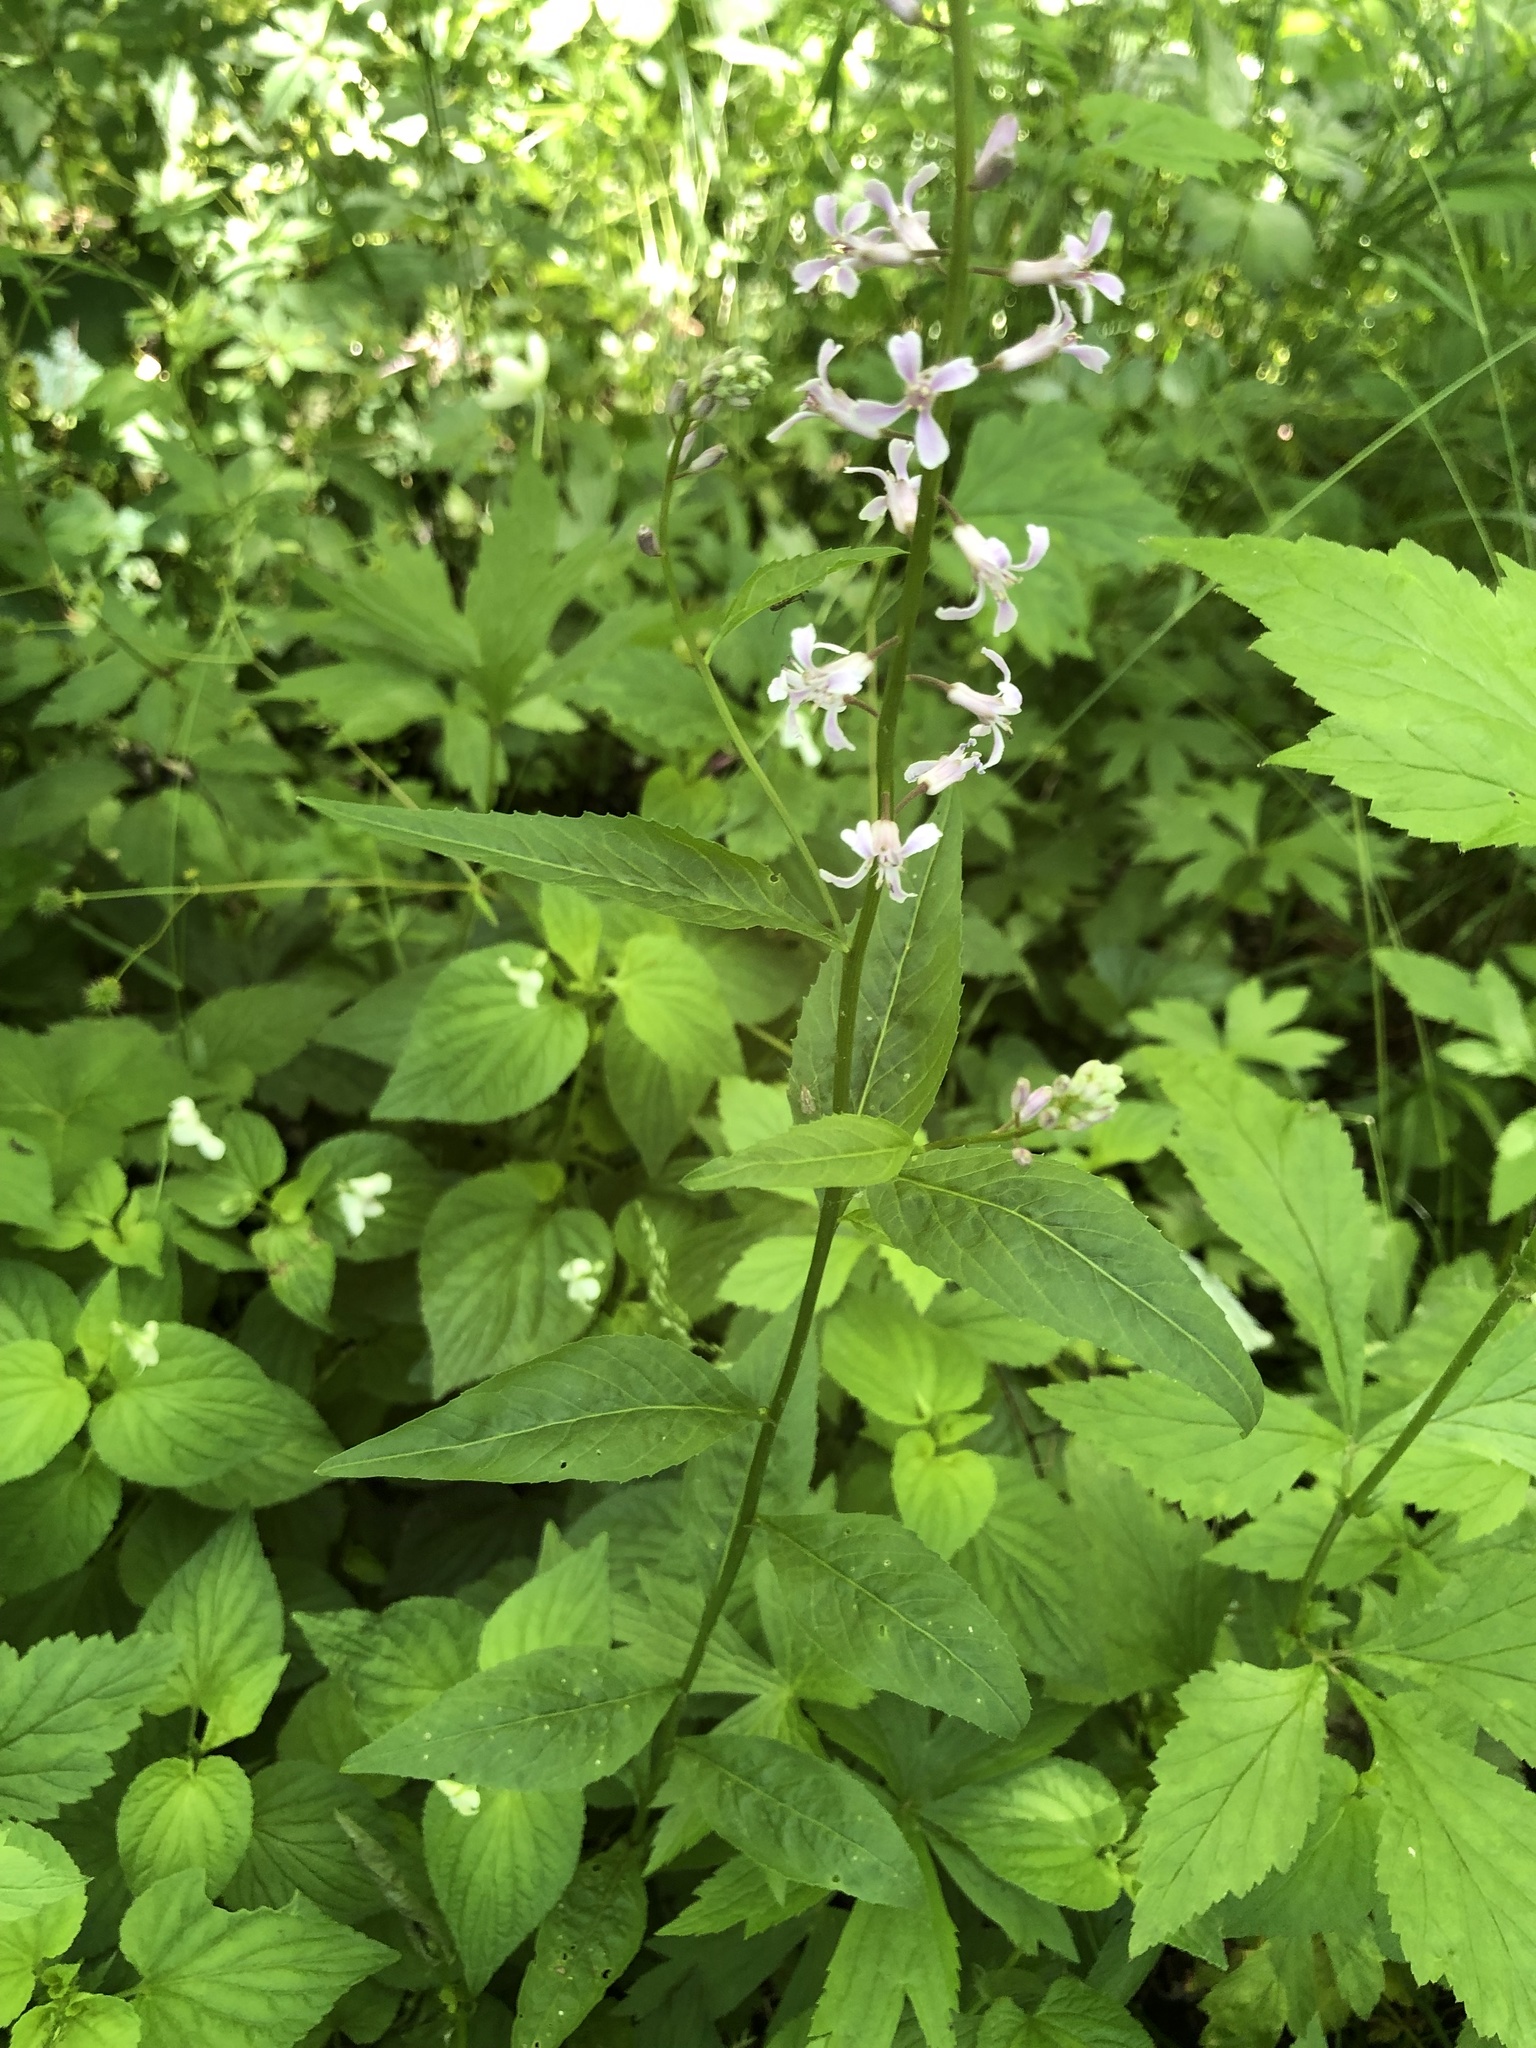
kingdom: Plantae
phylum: Tracheophyta
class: Magnoliopsida
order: Brassicales
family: Brassicaceae
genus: Iodanthus
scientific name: Iodanthus pinnatifidus
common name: Violet rocket
